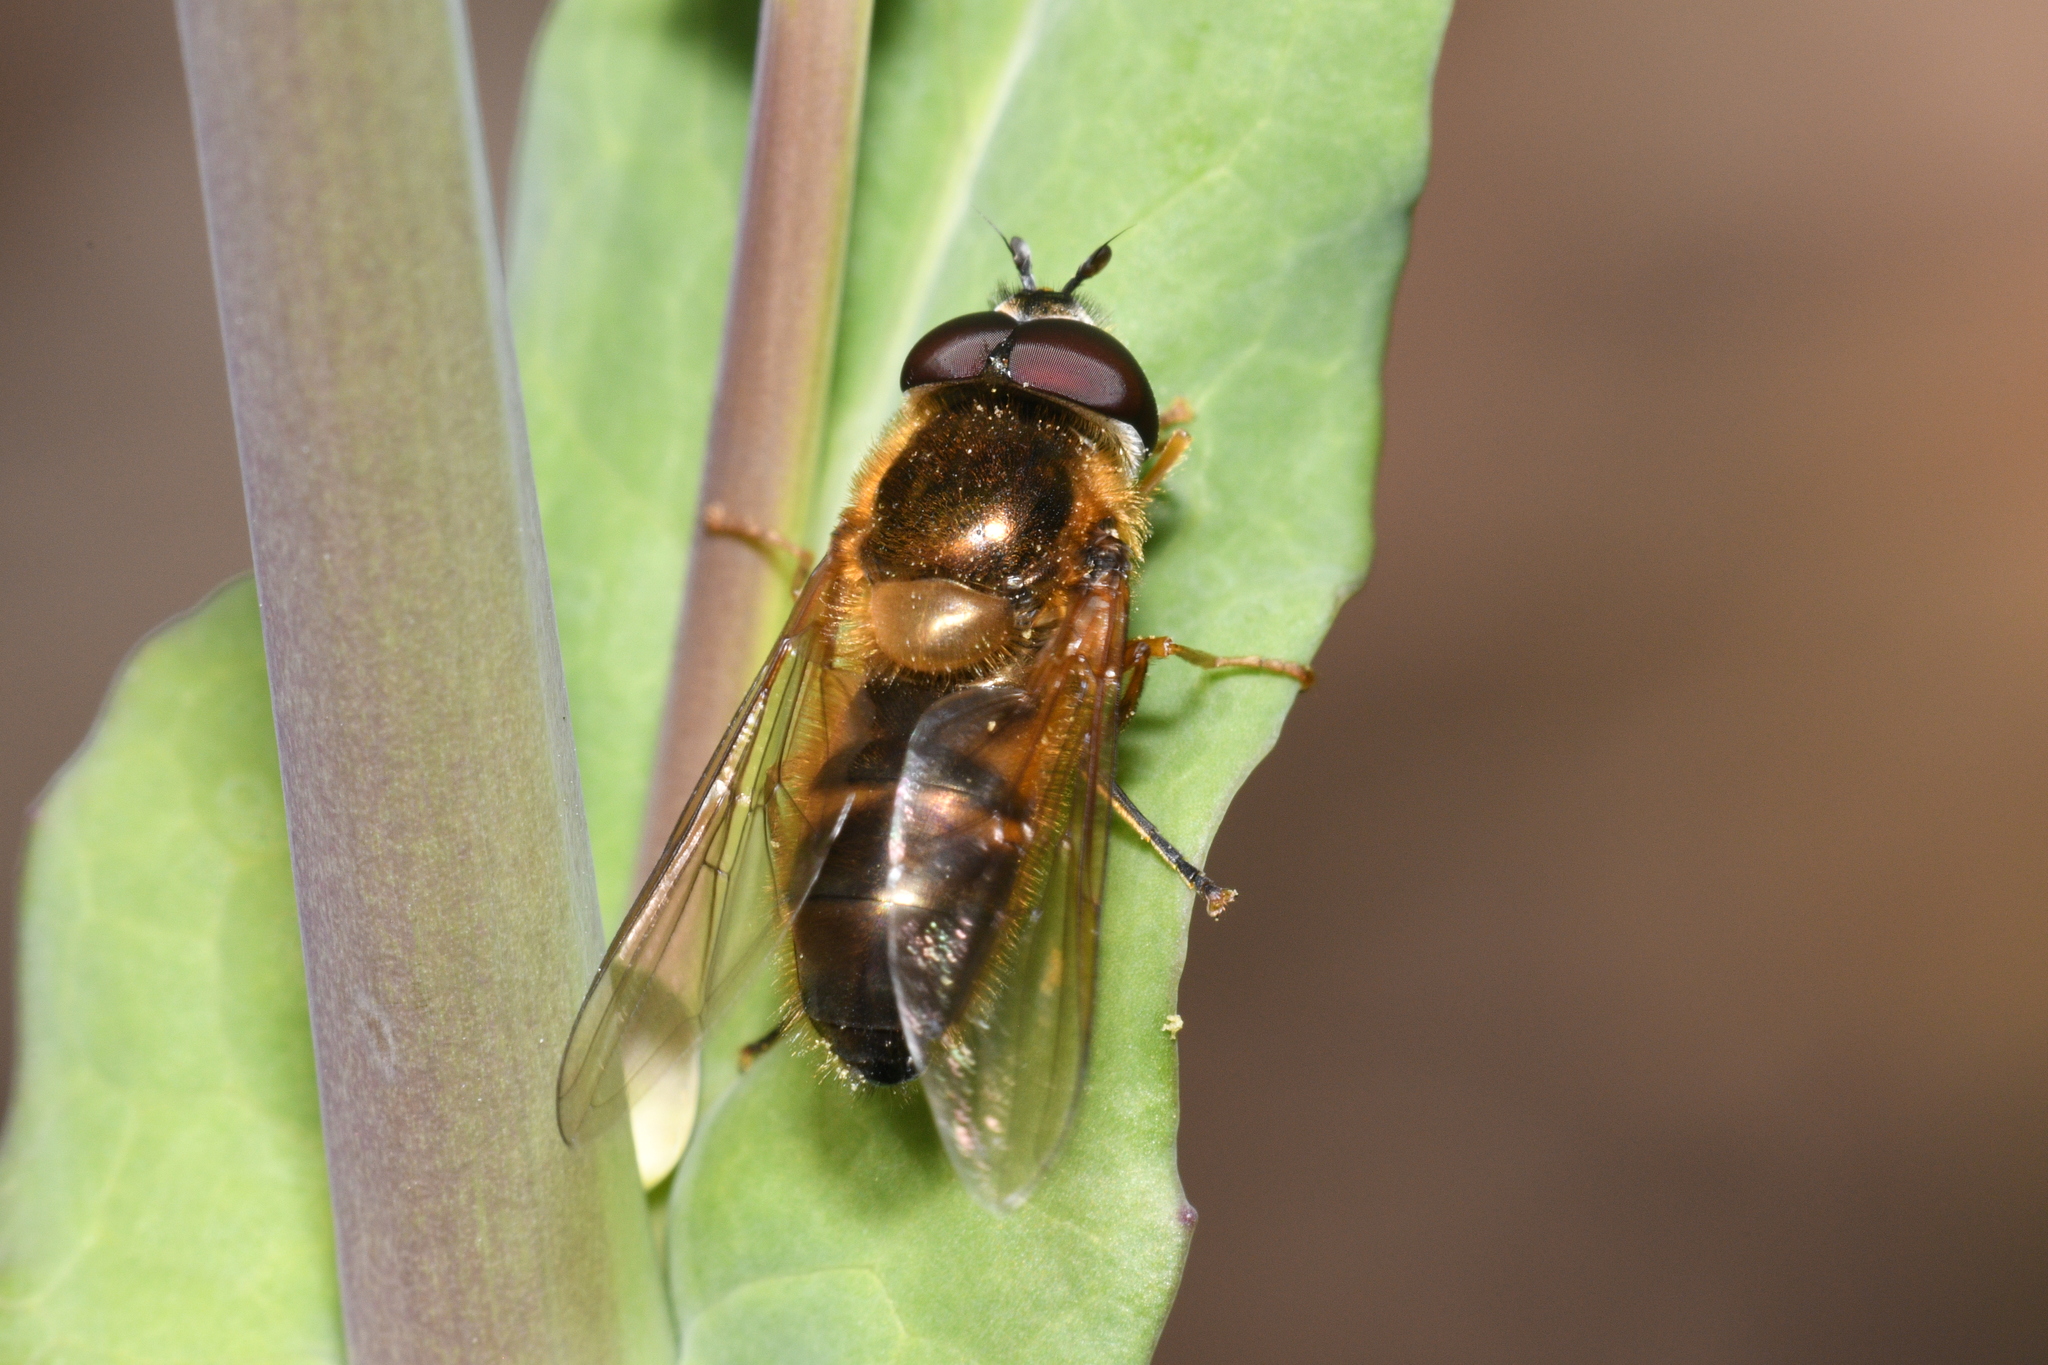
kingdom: Animalia
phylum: Arthropoda
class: Insecta
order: Diptera
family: Syrphidae
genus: Epistrophe
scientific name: Epistrophe eligans
